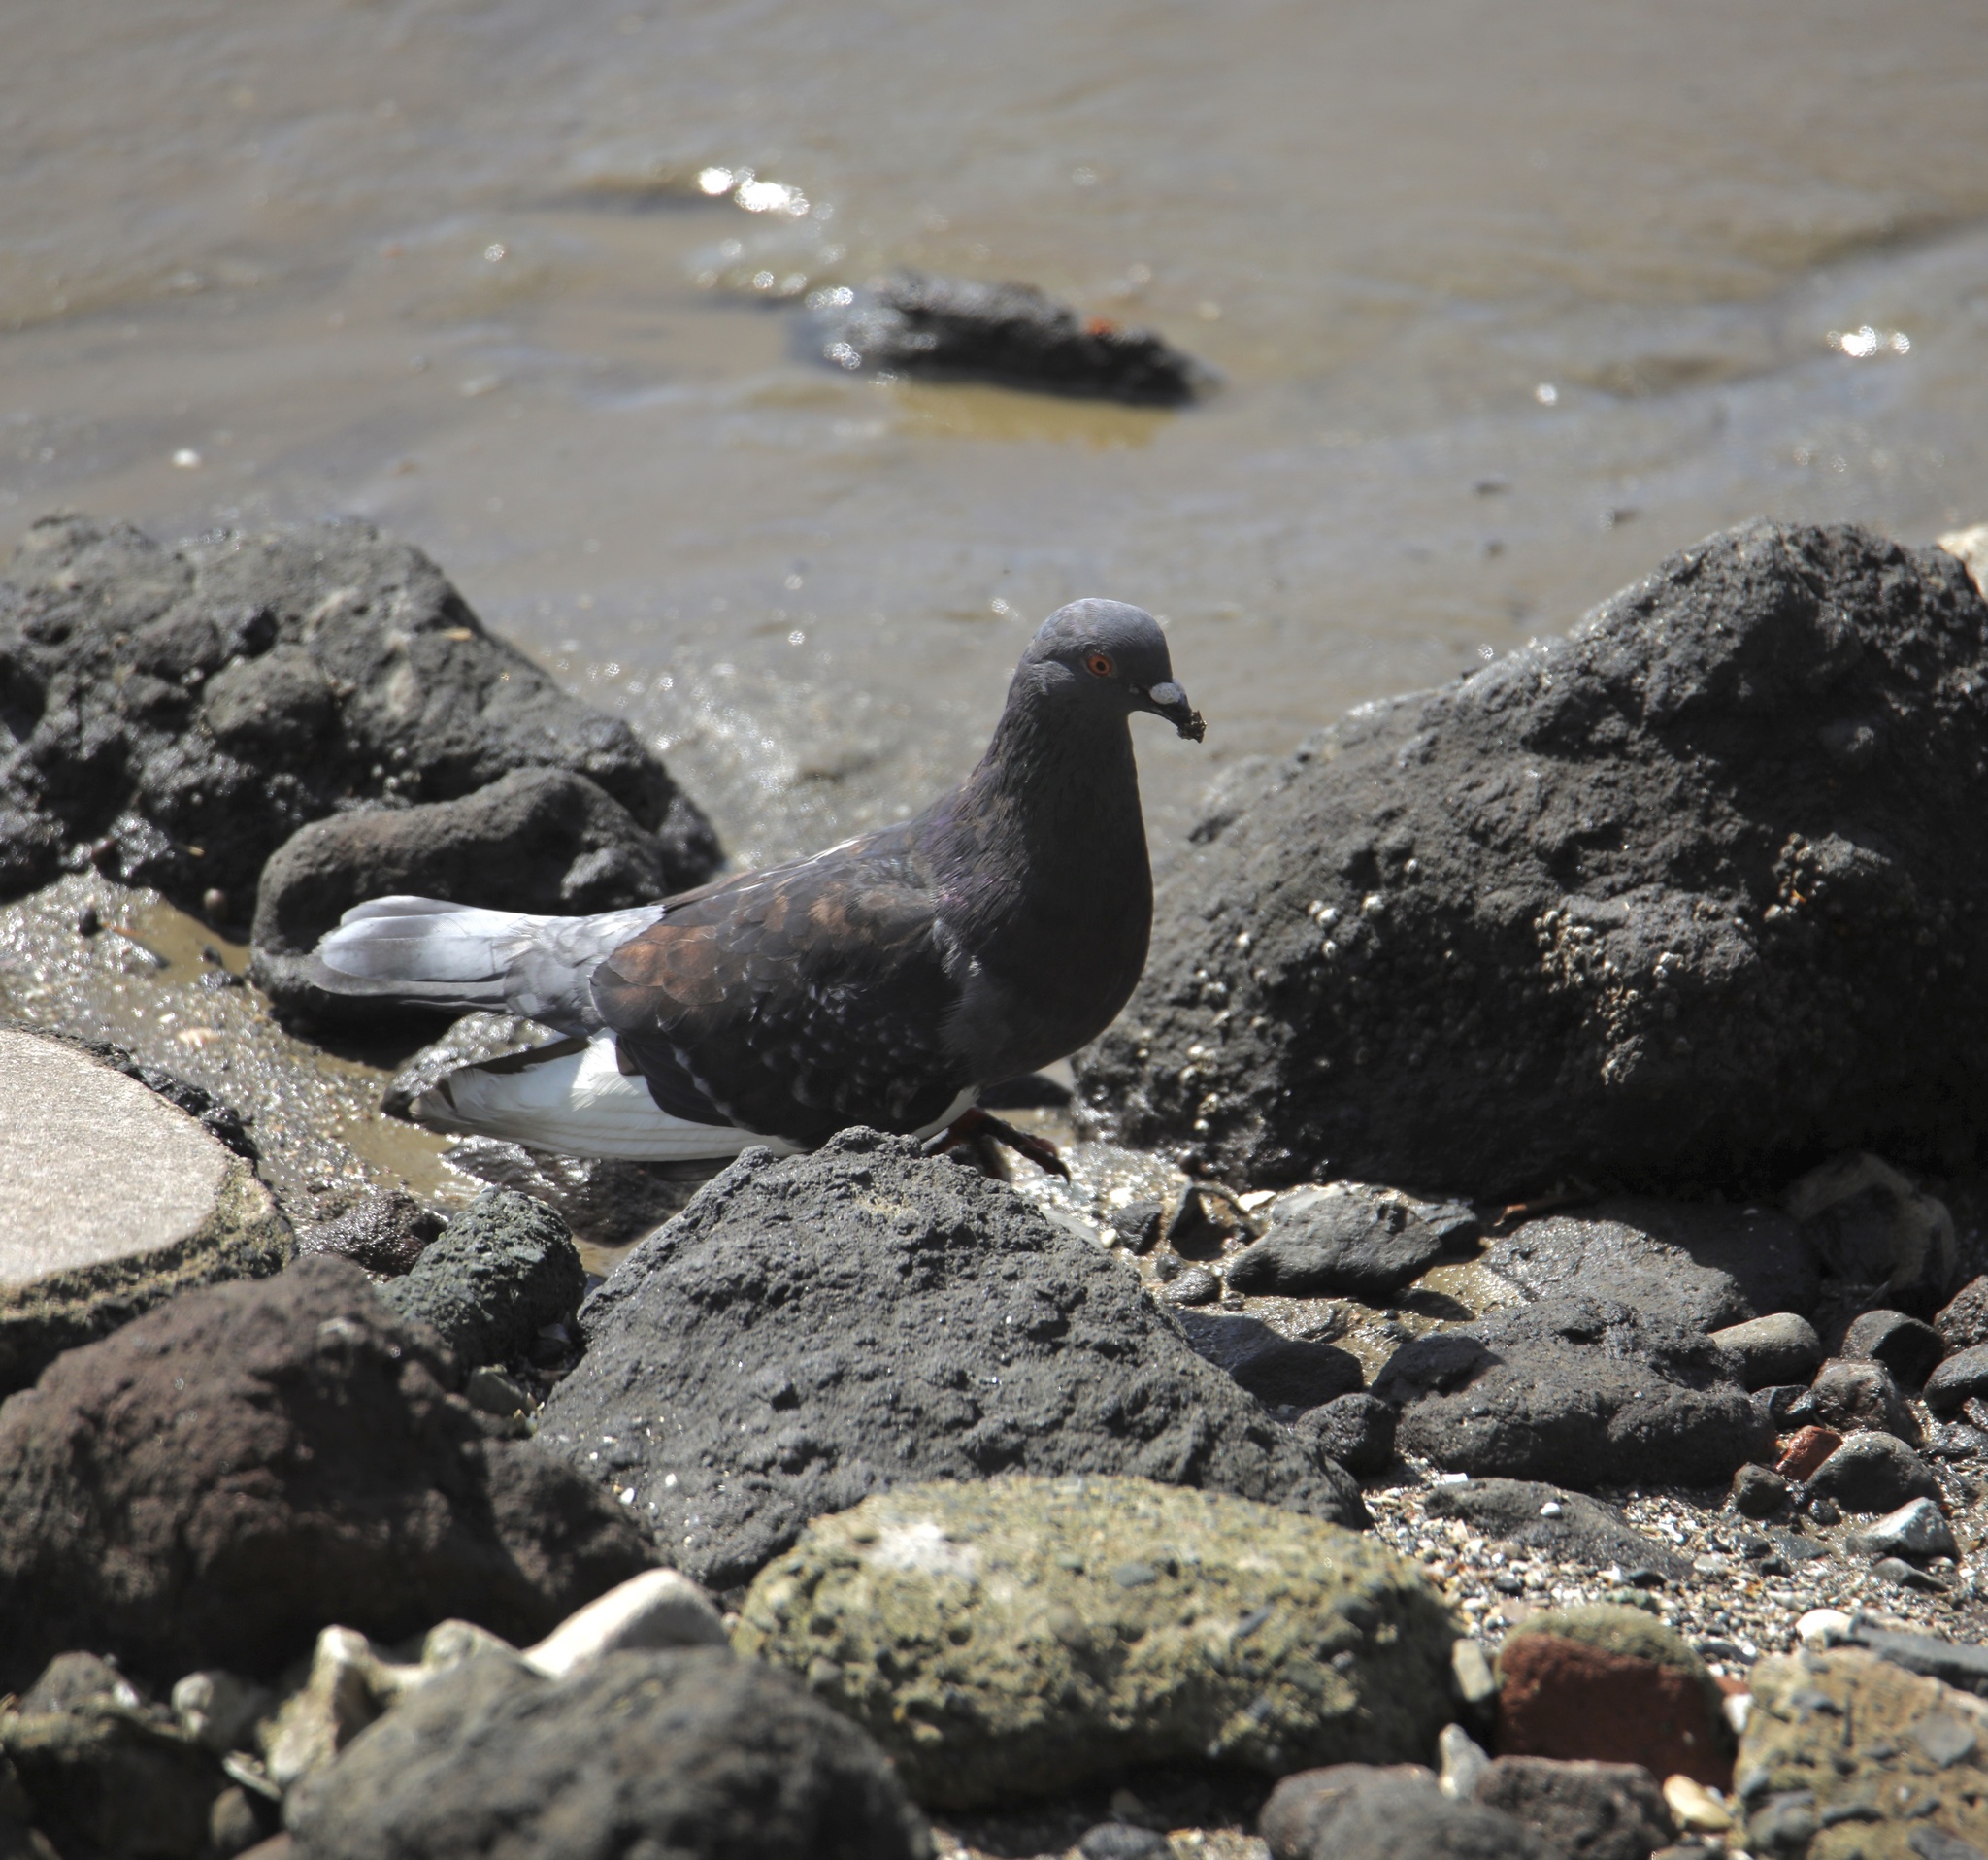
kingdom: Animalia
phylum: Chordata
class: Aves
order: Columbiformes
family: Columbidae
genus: Columba
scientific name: Columba livia
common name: Rock pigeon
